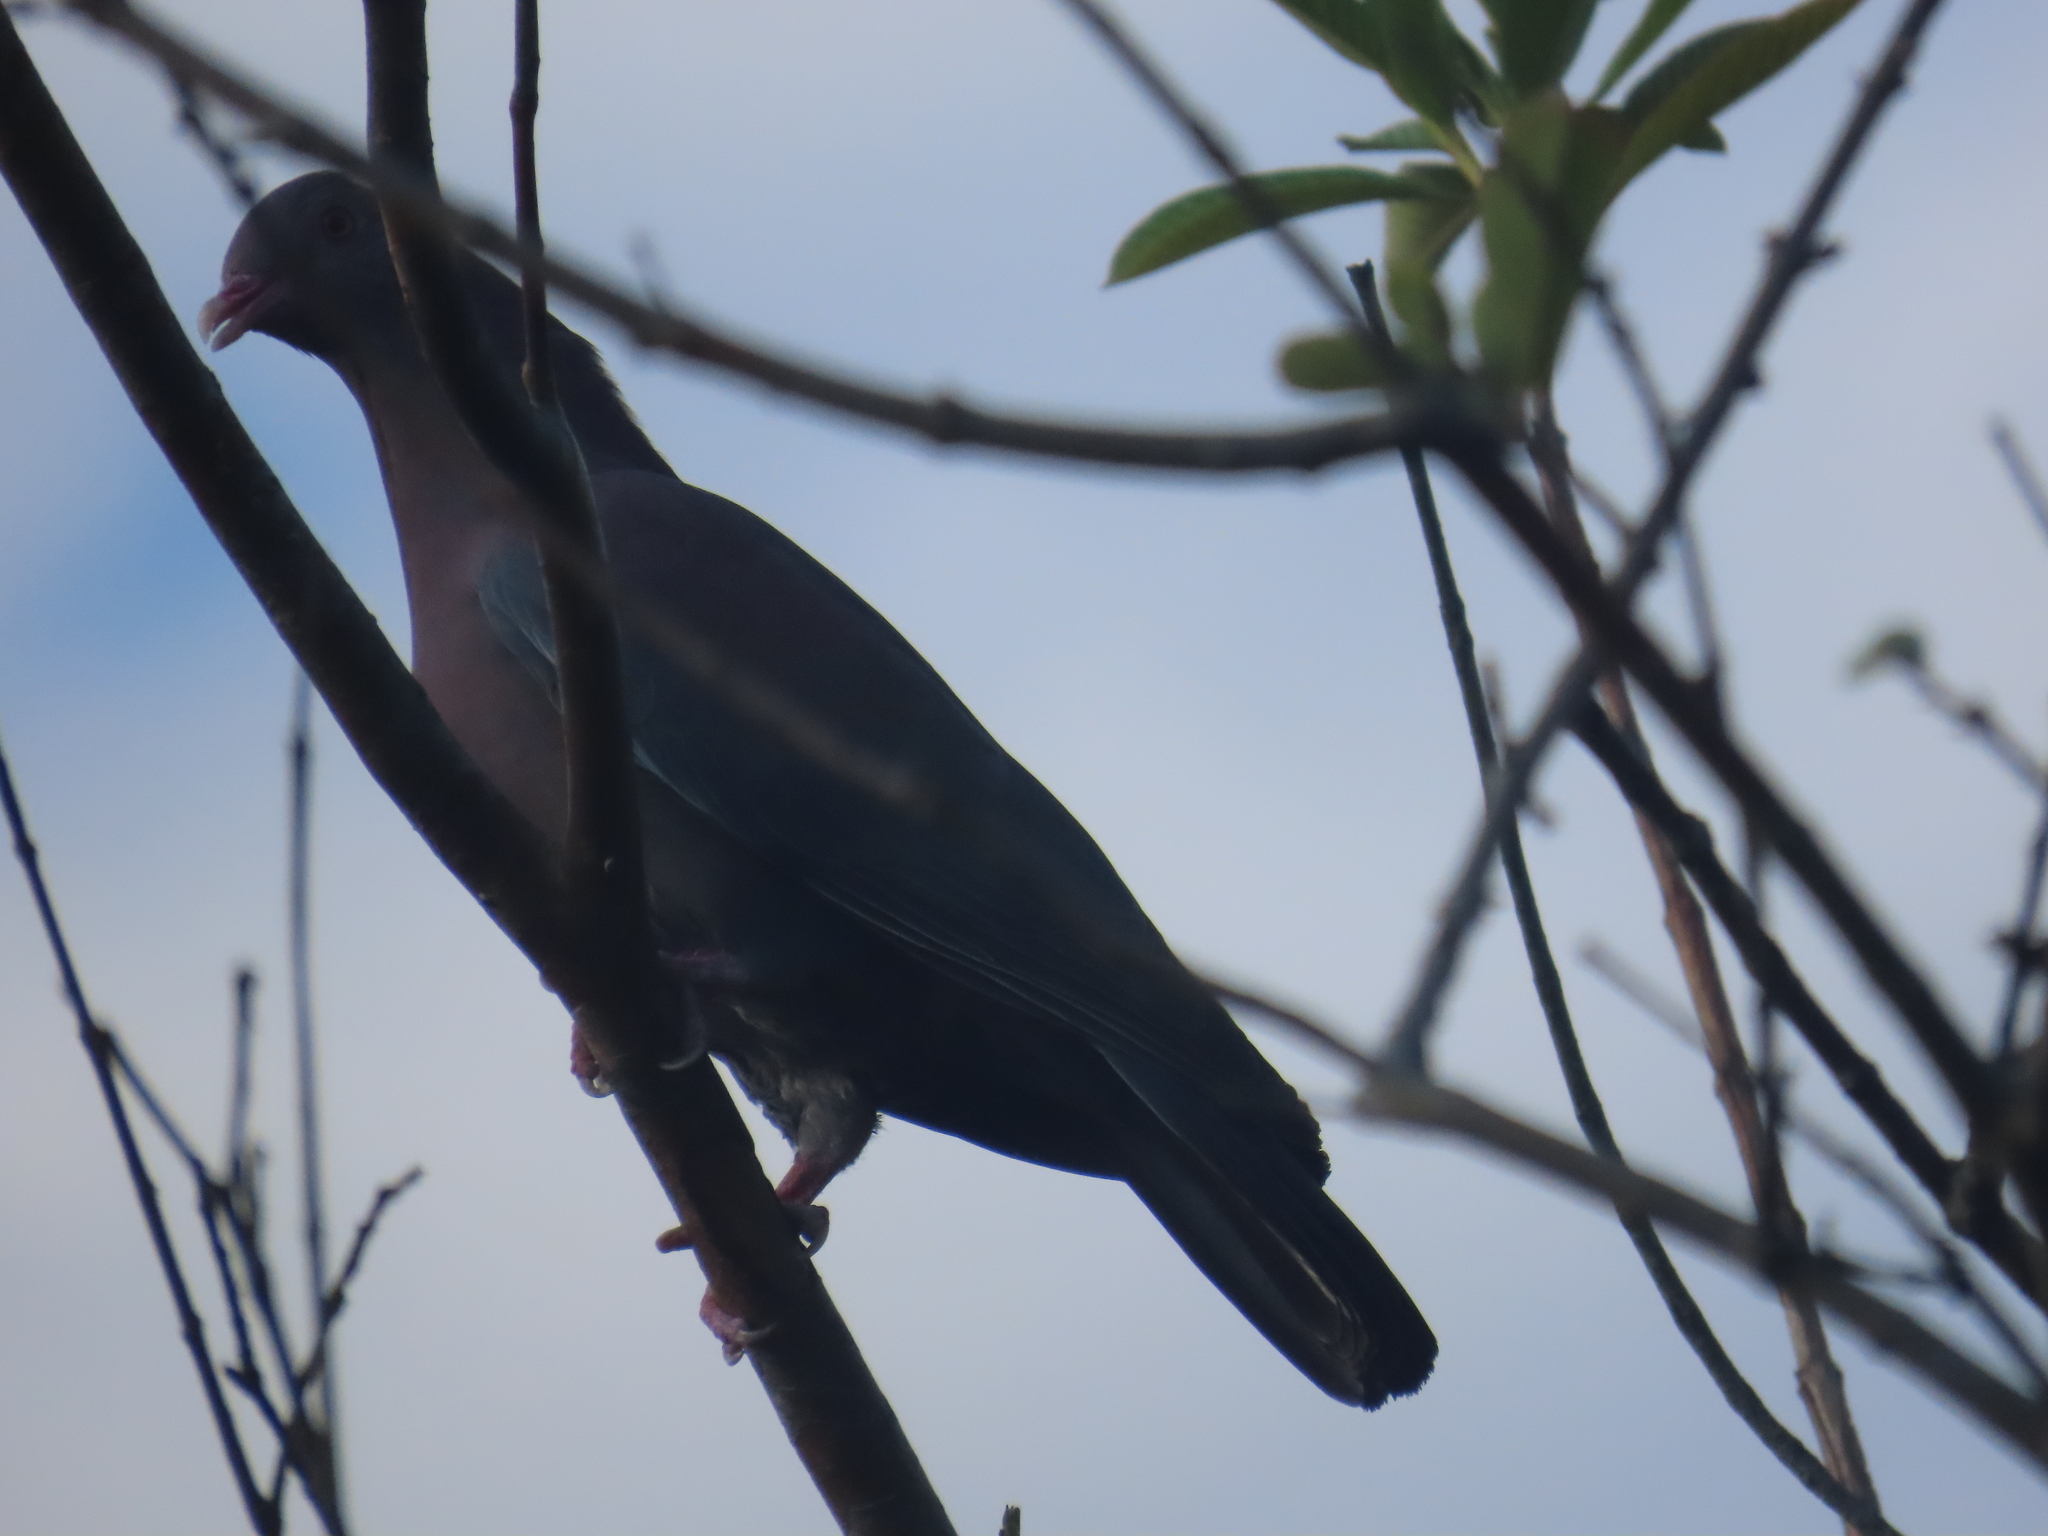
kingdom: Animalia
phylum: Chordata
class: Aves
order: Columbiformes
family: Columbidae
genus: Patagioenas
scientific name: Patagioenas flavirostris
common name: Red-billed pigeon
